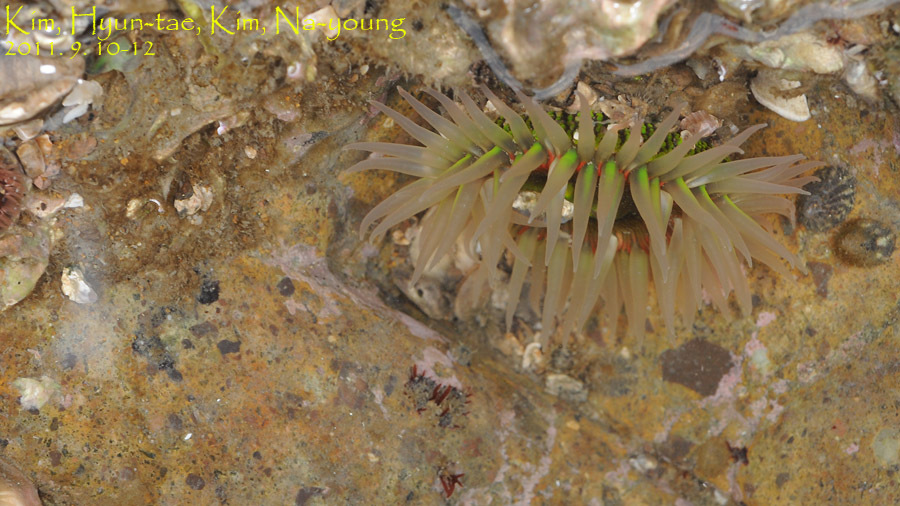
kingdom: Animalia
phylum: Cnidaria
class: Anthozoa
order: Actiniaria
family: Actiniidae
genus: Anthopleura
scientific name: Anthopleura fuscoviridis
